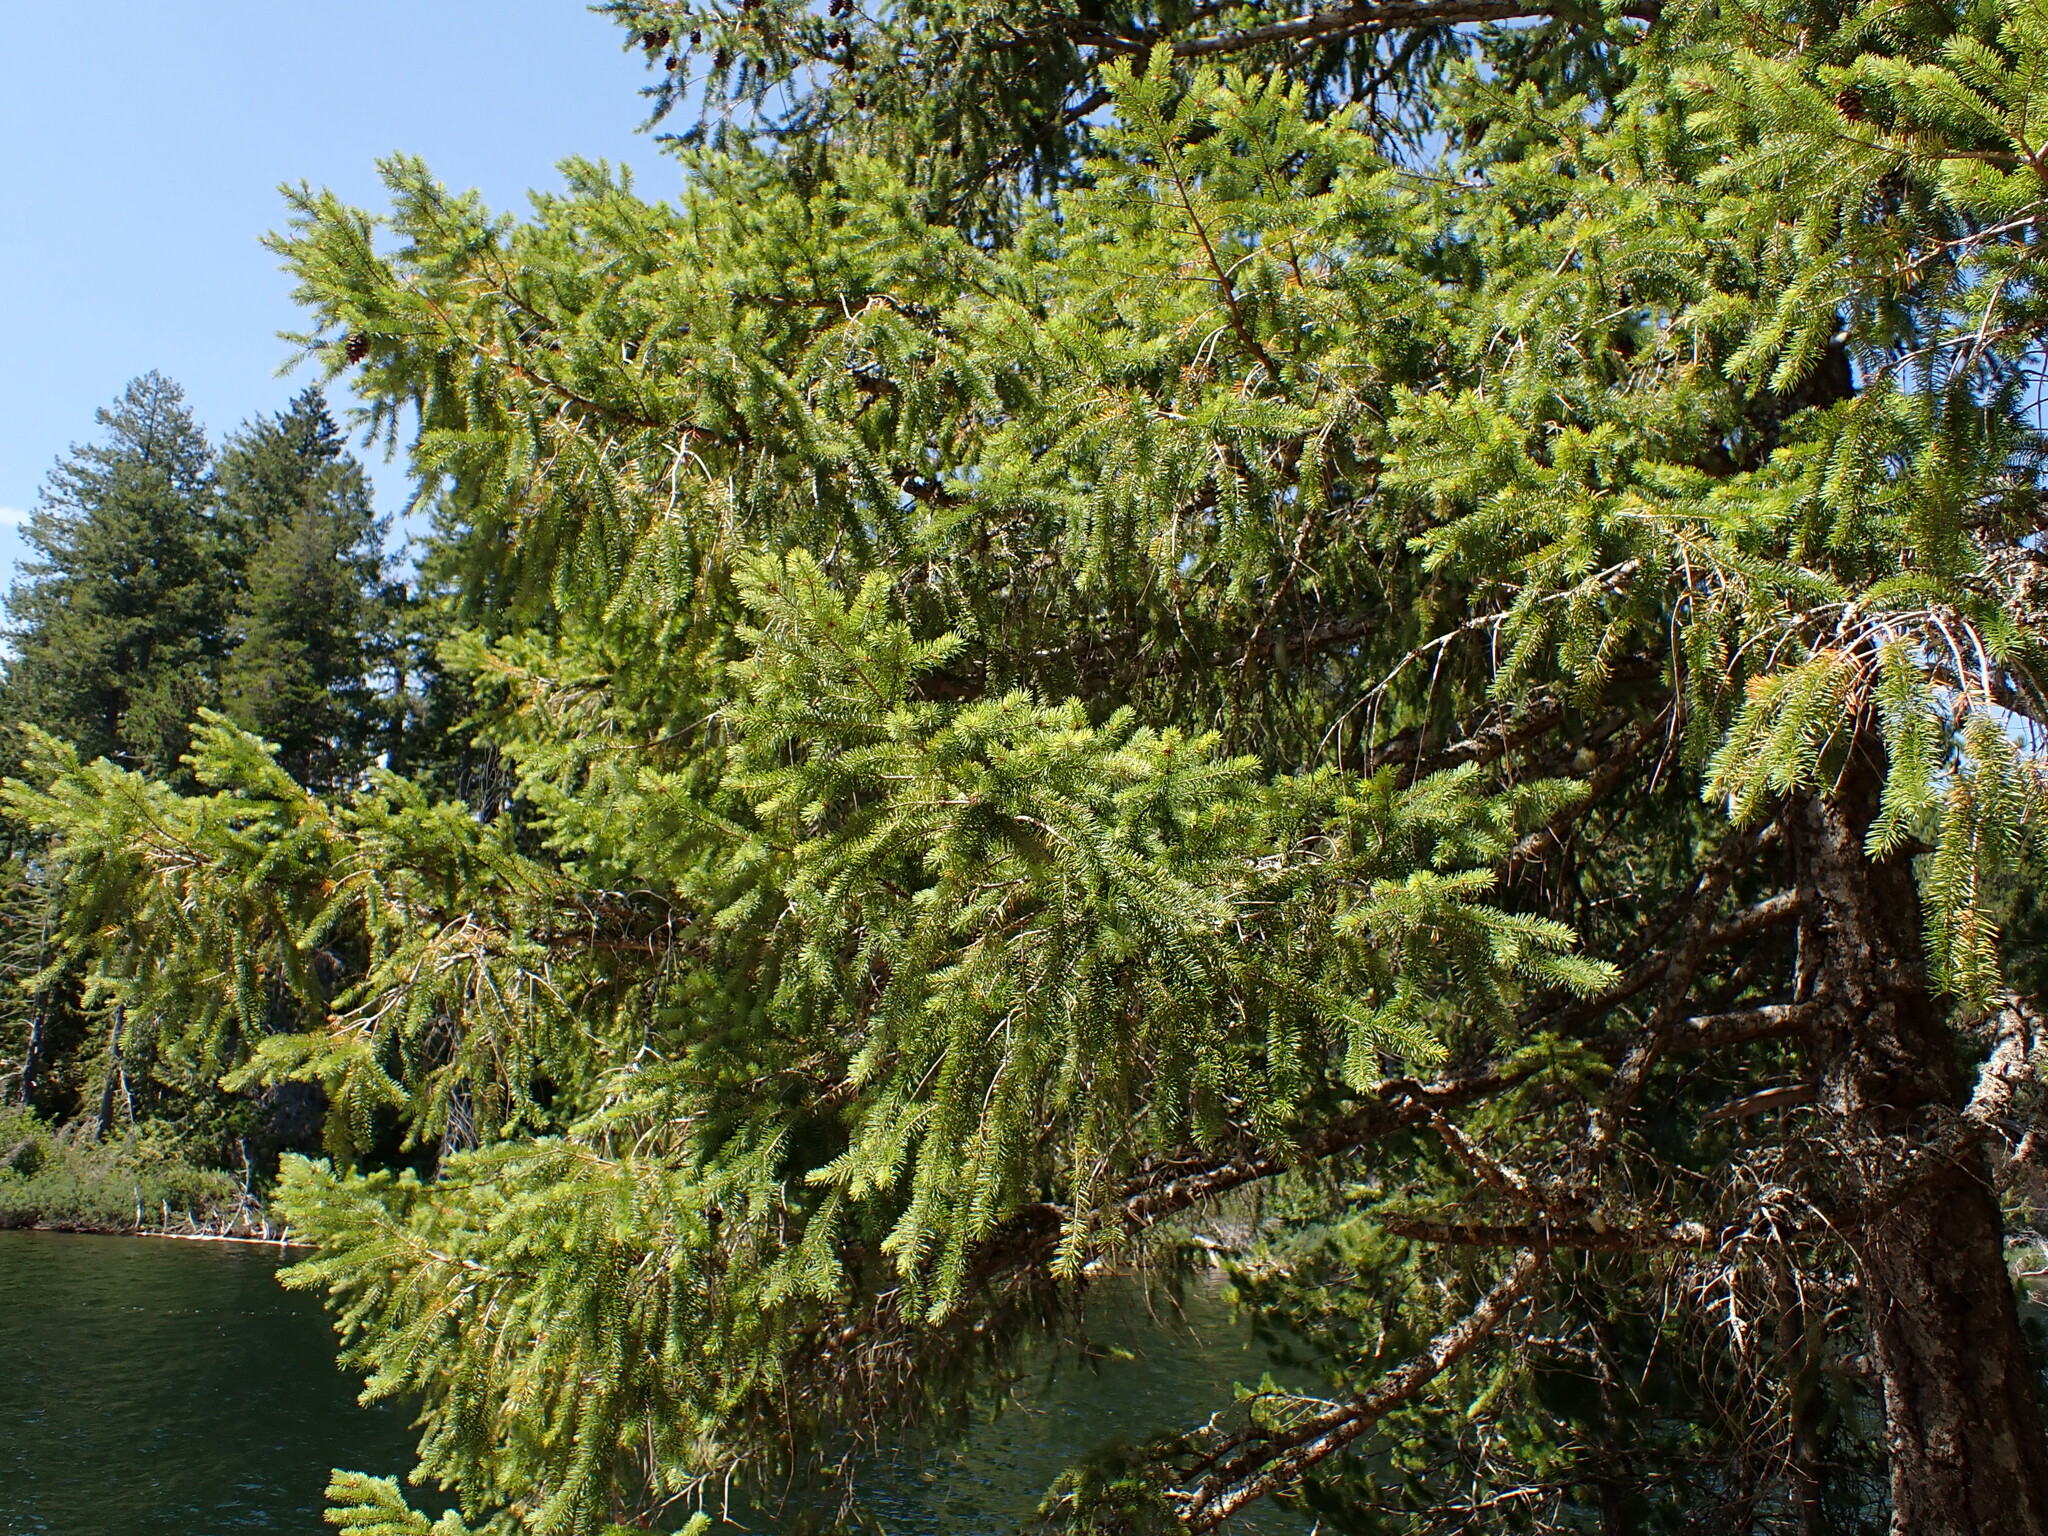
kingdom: Plantae
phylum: Tracheophyta
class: Pinopsida
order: Pinales
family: Pinaceae
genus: Pseudotsuga
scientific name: Pseudotsuga menziesii
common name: Douglas fir
